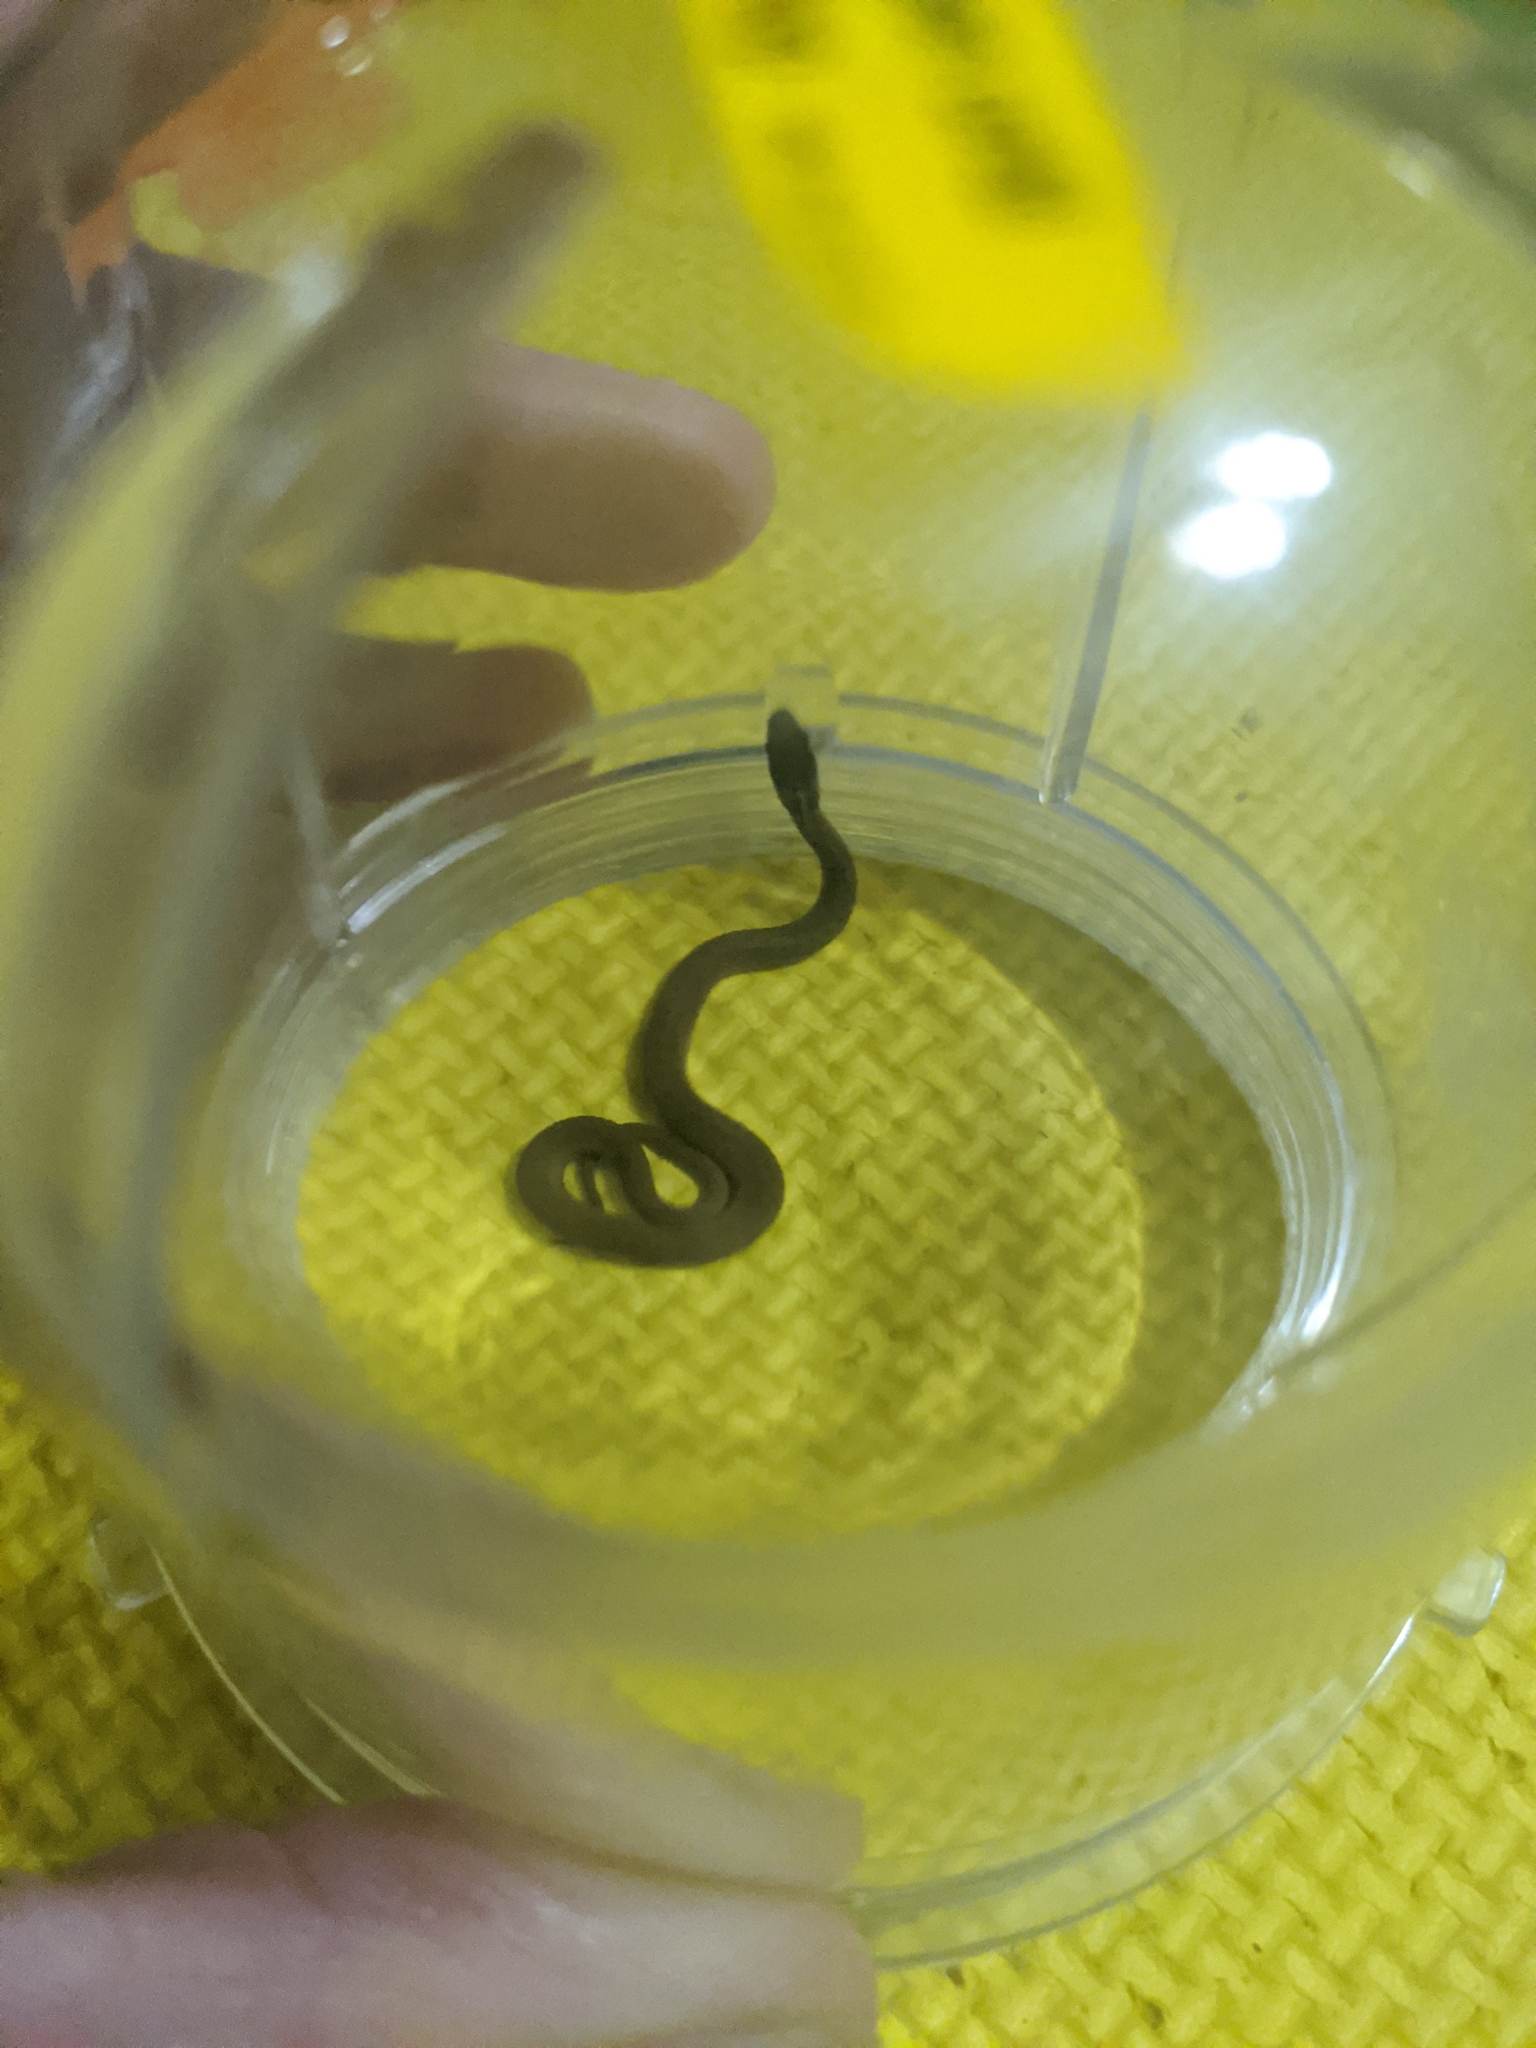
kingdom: Animalia
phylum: Chordata
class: Squamata
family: Colubridae
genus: Storeria
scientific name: Storeria dekayi
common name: (dekay’s) brown snake
